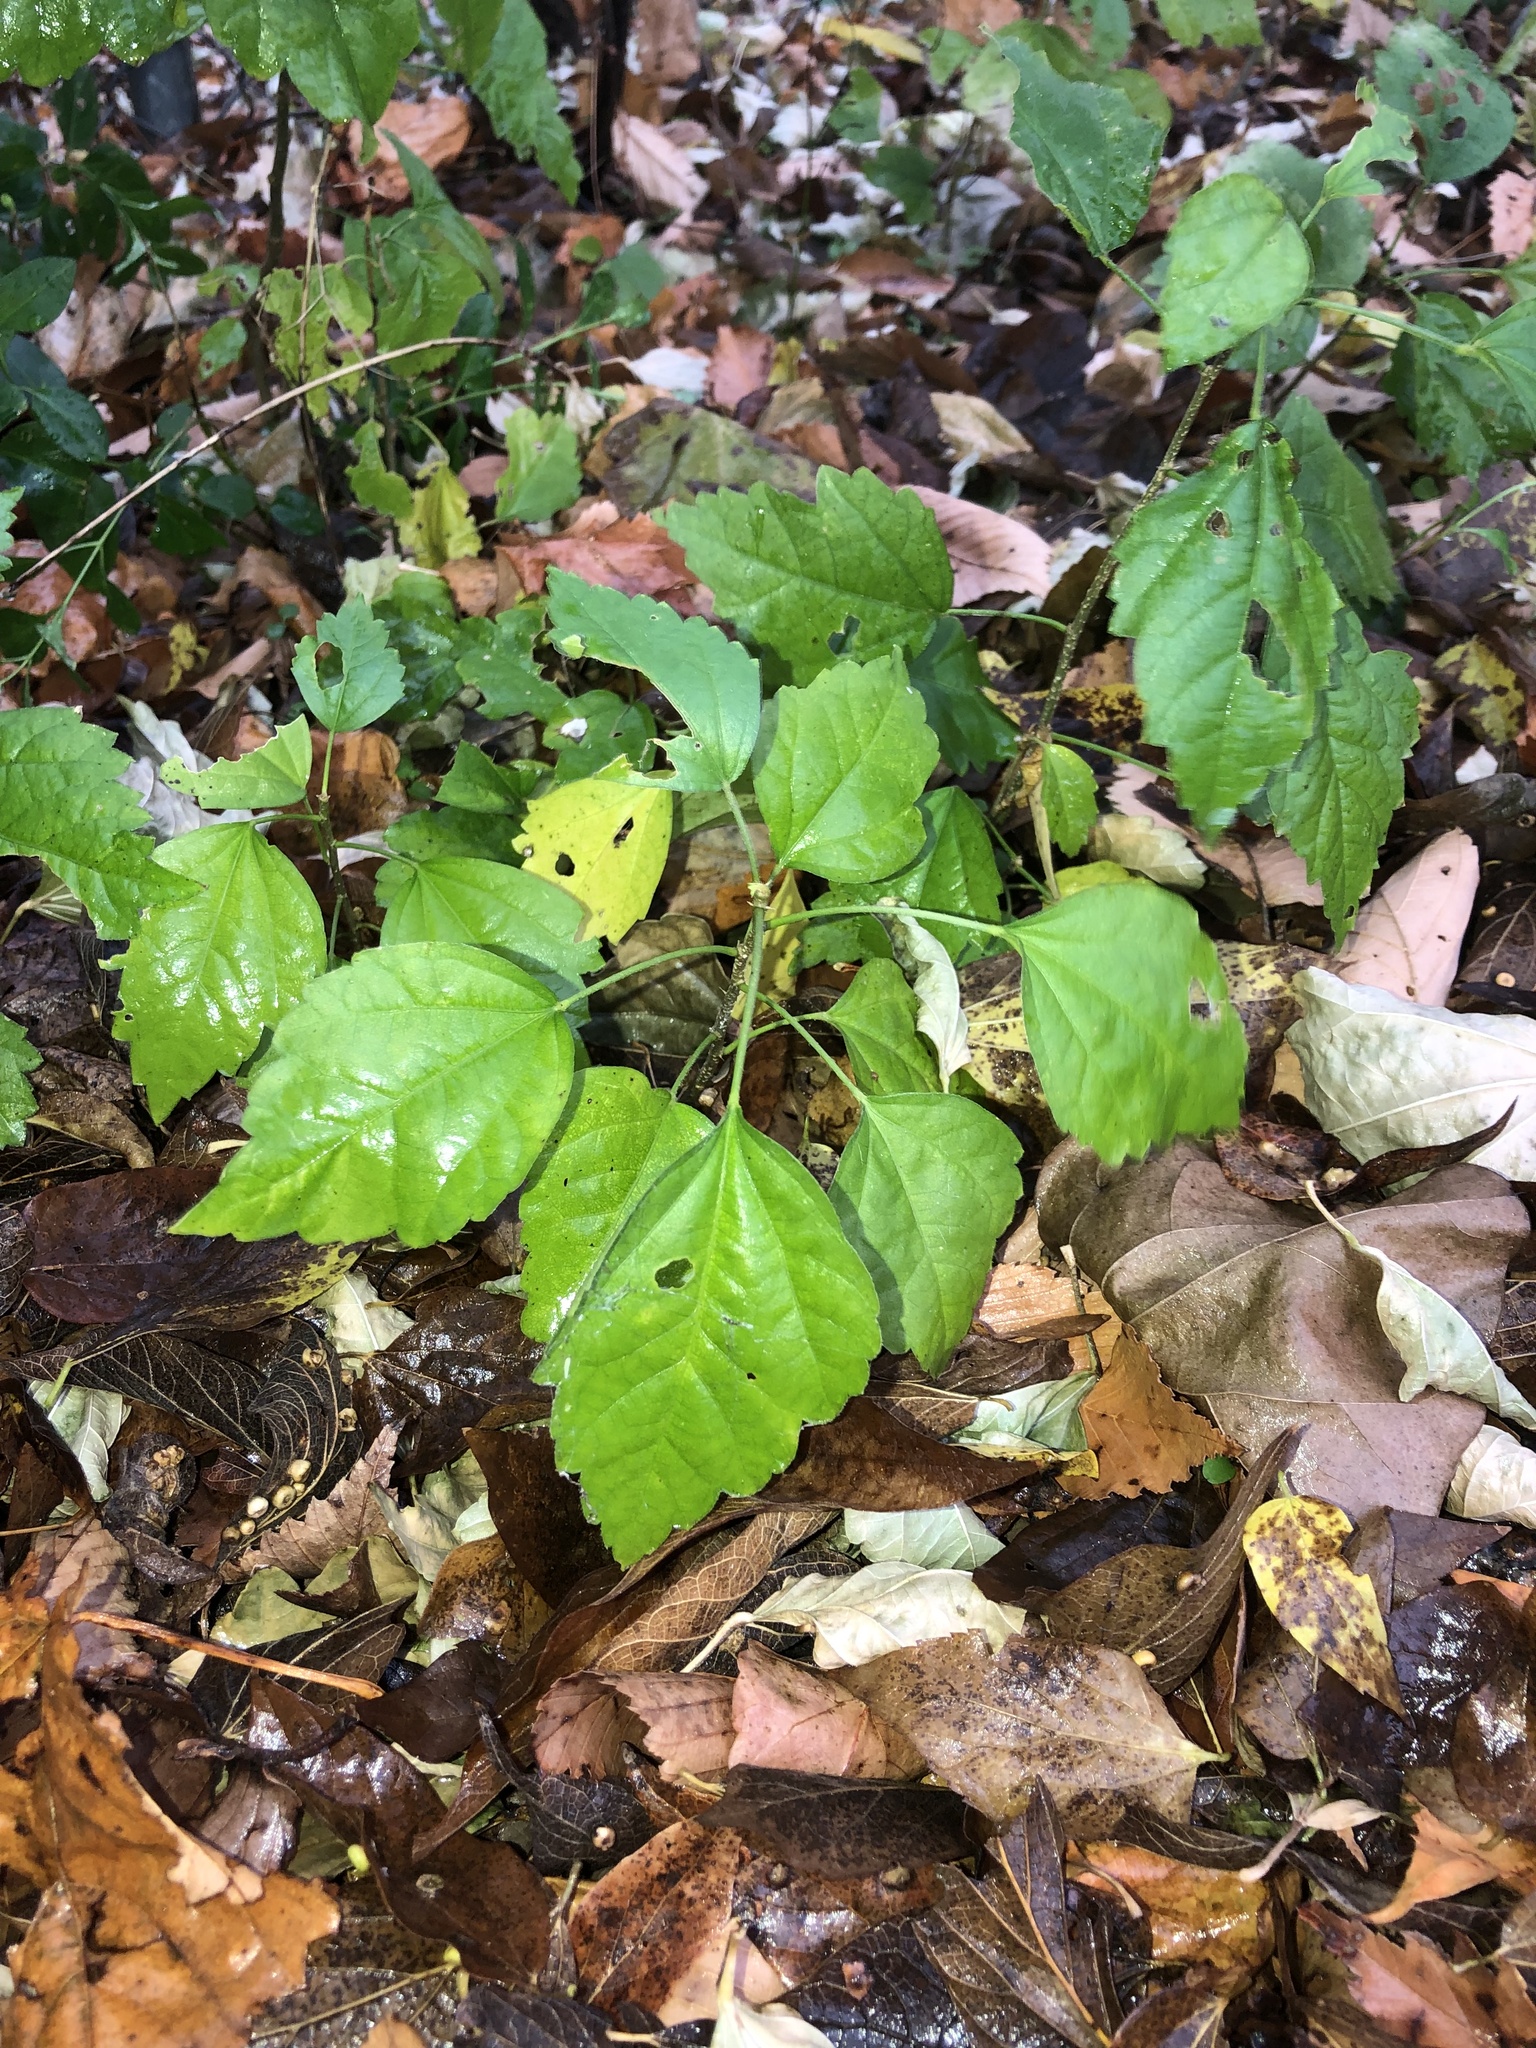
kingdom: Plantae
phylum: Tracheophyta
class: Magnoliopsida
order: Malvales
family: Malvaceae
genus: Hibiscus
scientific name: Hibiscus syriacus
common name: Syrian ketmia
